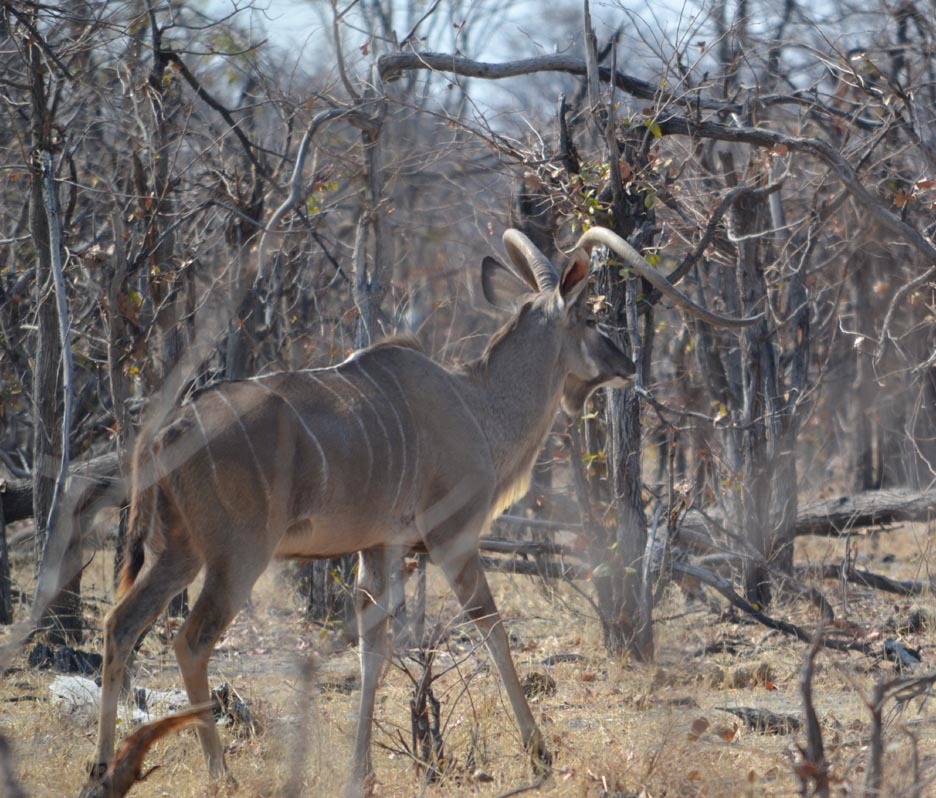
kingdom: Animalia
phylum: Chordata
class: Mammalia
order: Artiodactyla
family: Bovidae
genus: Tragelaphus
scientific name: Tragelaphus strepsiceros
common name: Greater kudu
